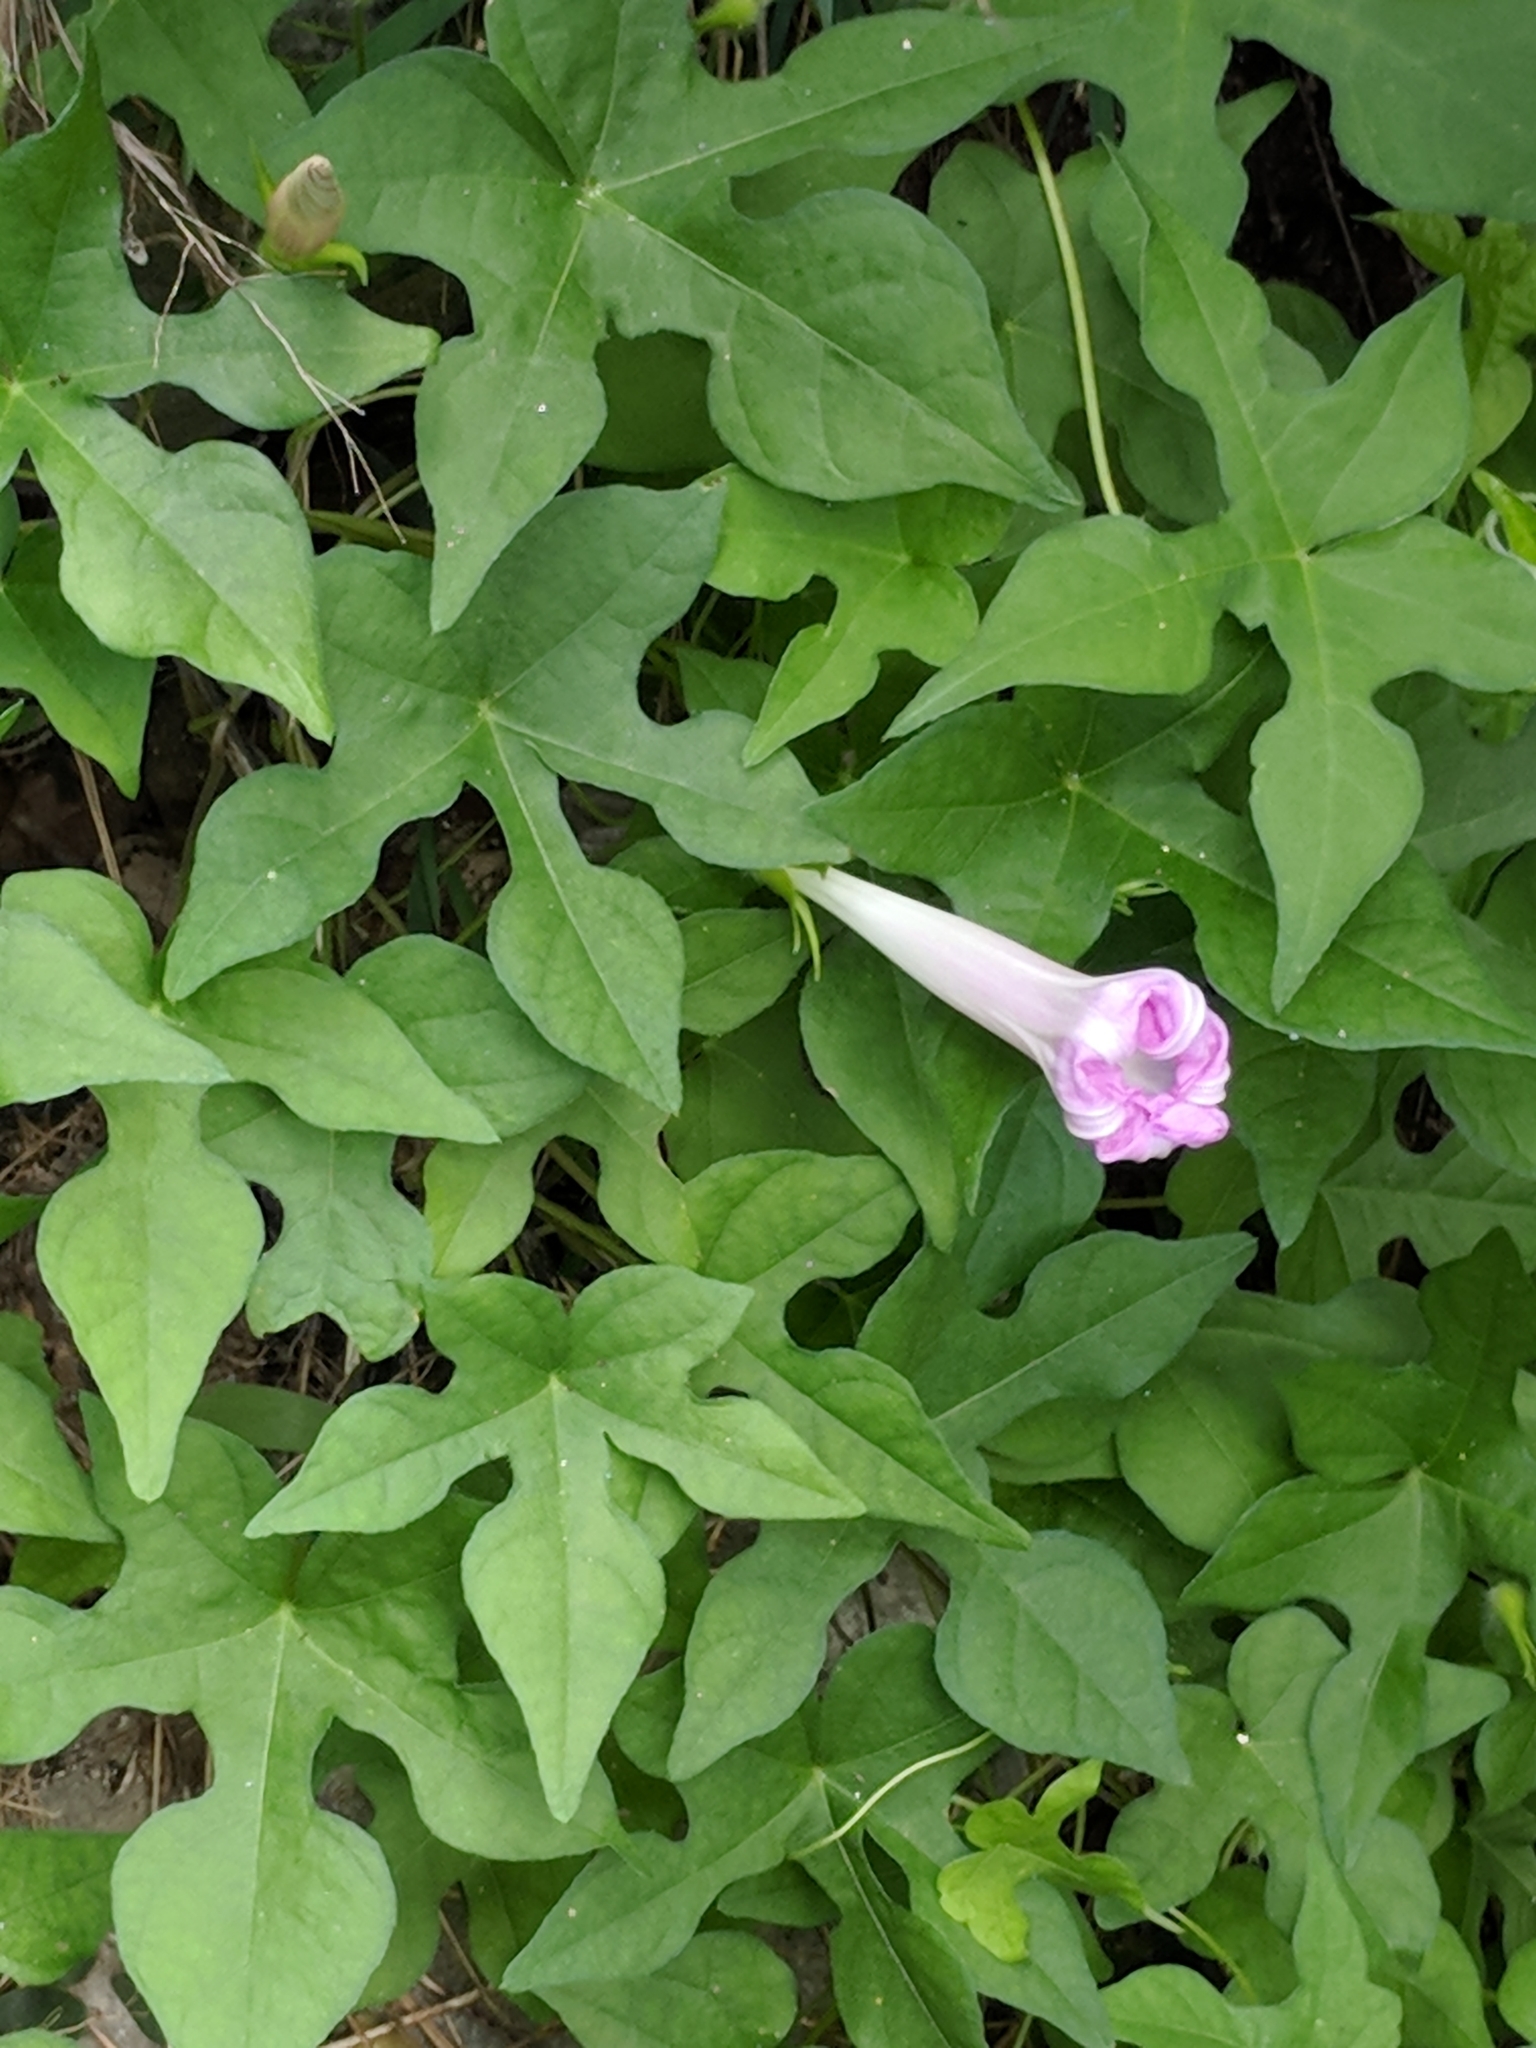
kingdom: Plantae
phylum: Tracheophyta
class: Magnoliopsida
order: Solanales
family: Convolvulaceae
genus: Ipomoea
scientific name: Ipomoea lindheimeri
